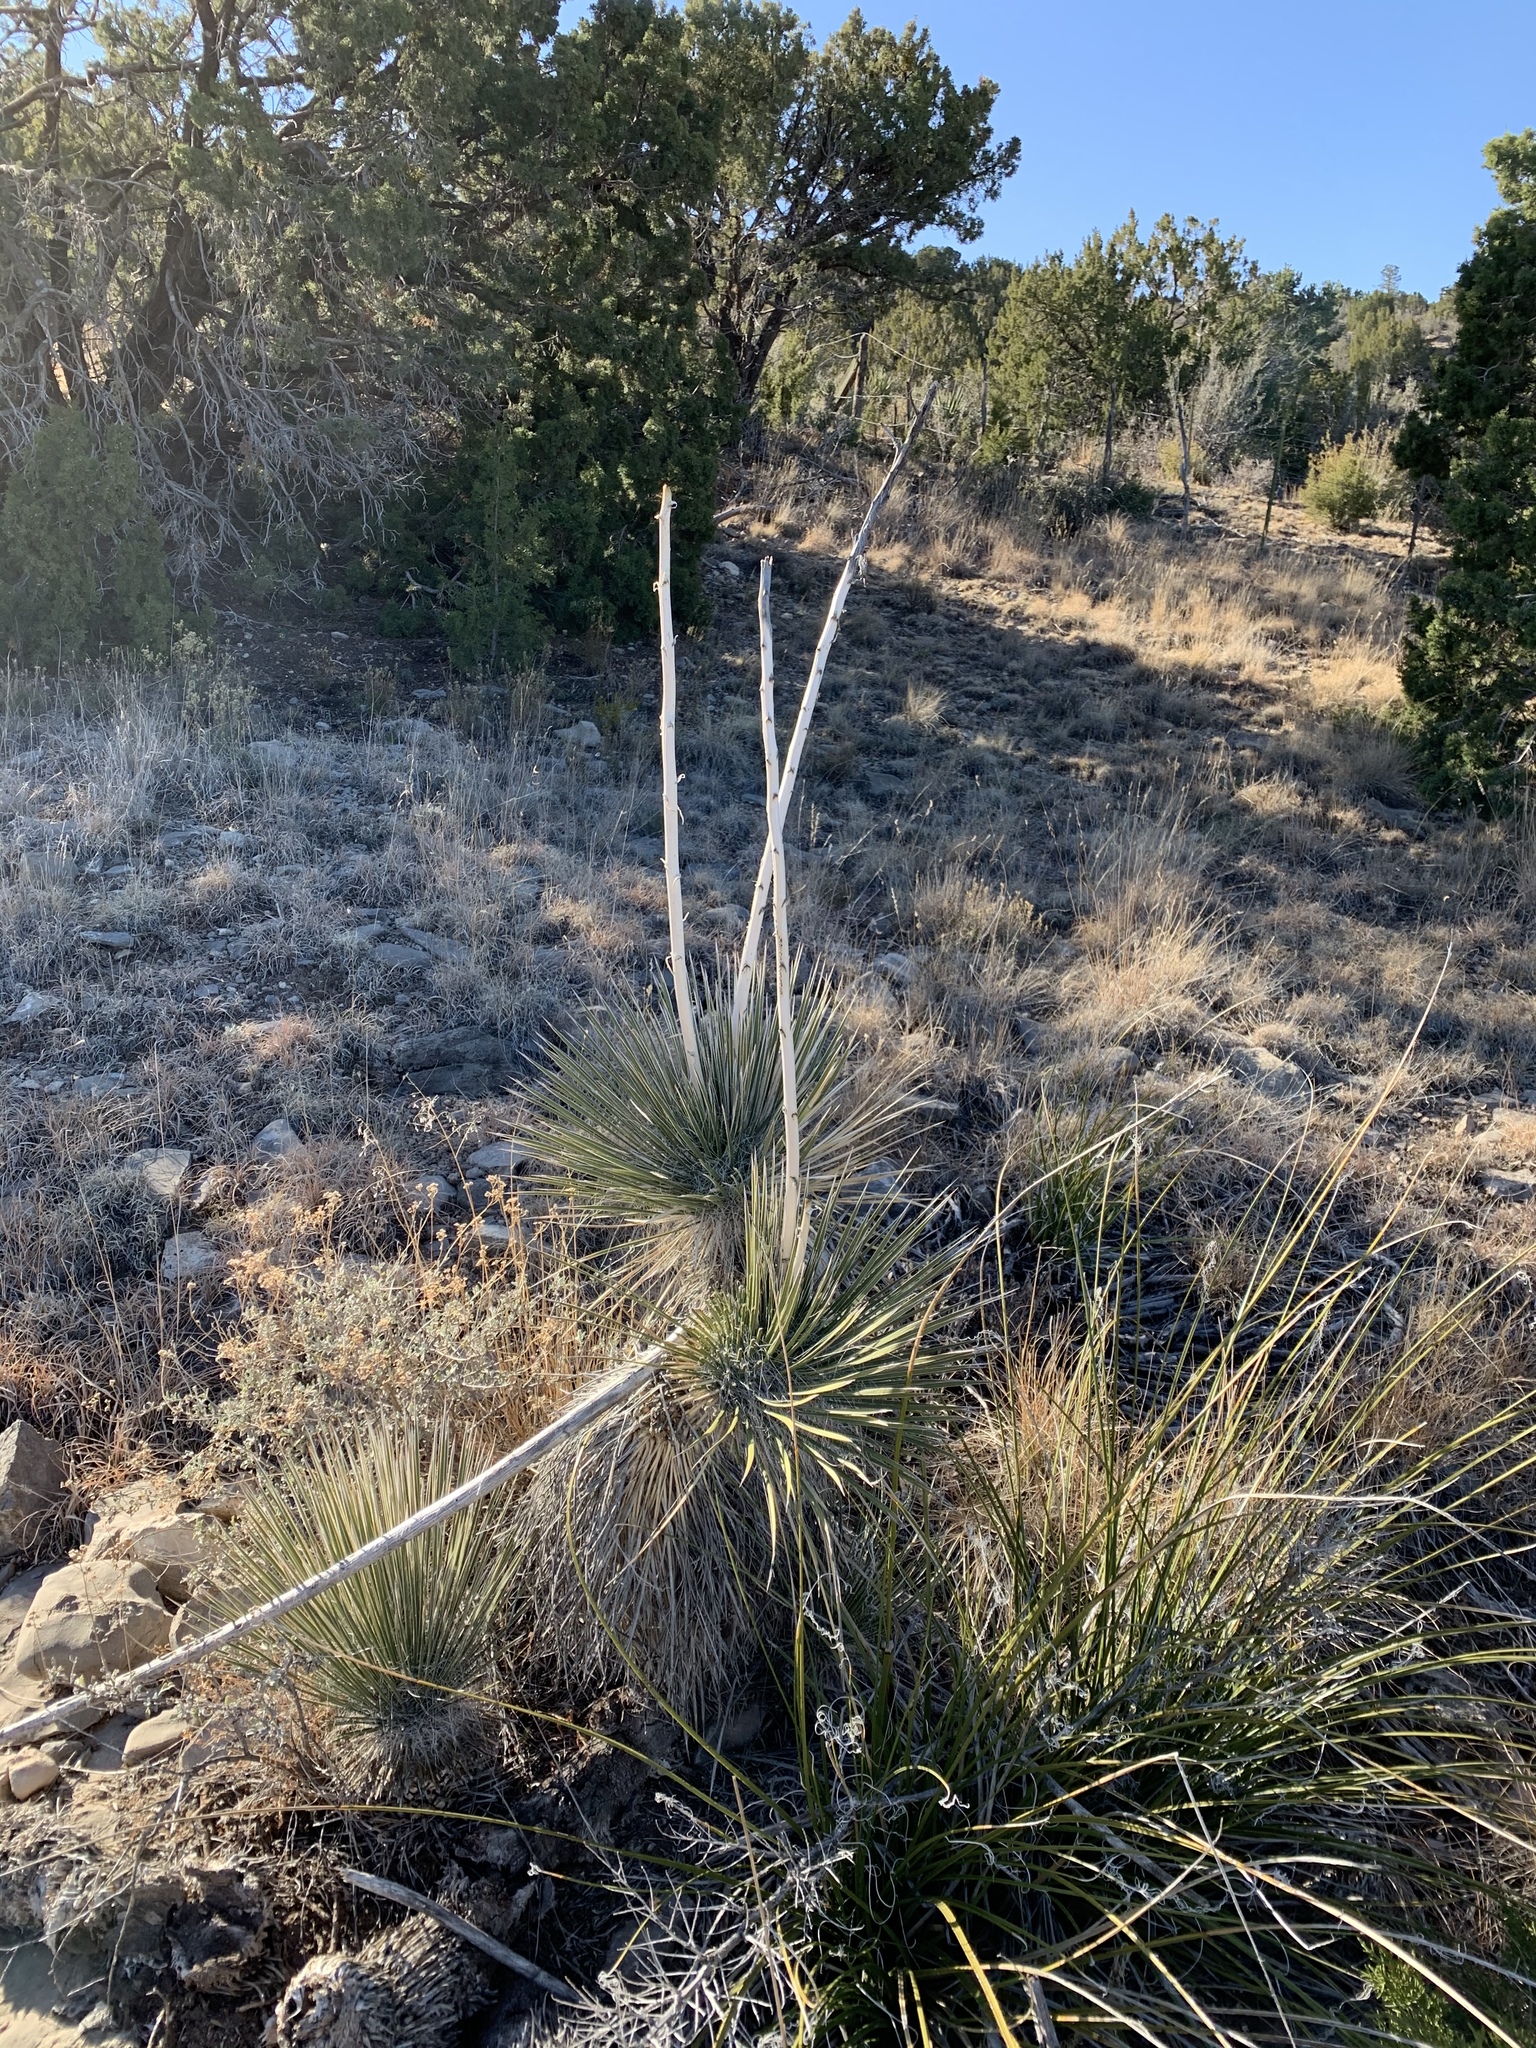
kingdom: Plantae
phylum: Tracheophyta
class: Liliopsida
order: Asparagales
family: Asparagaceae
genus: Yucca
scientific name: Yucca elata
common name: Palmella
